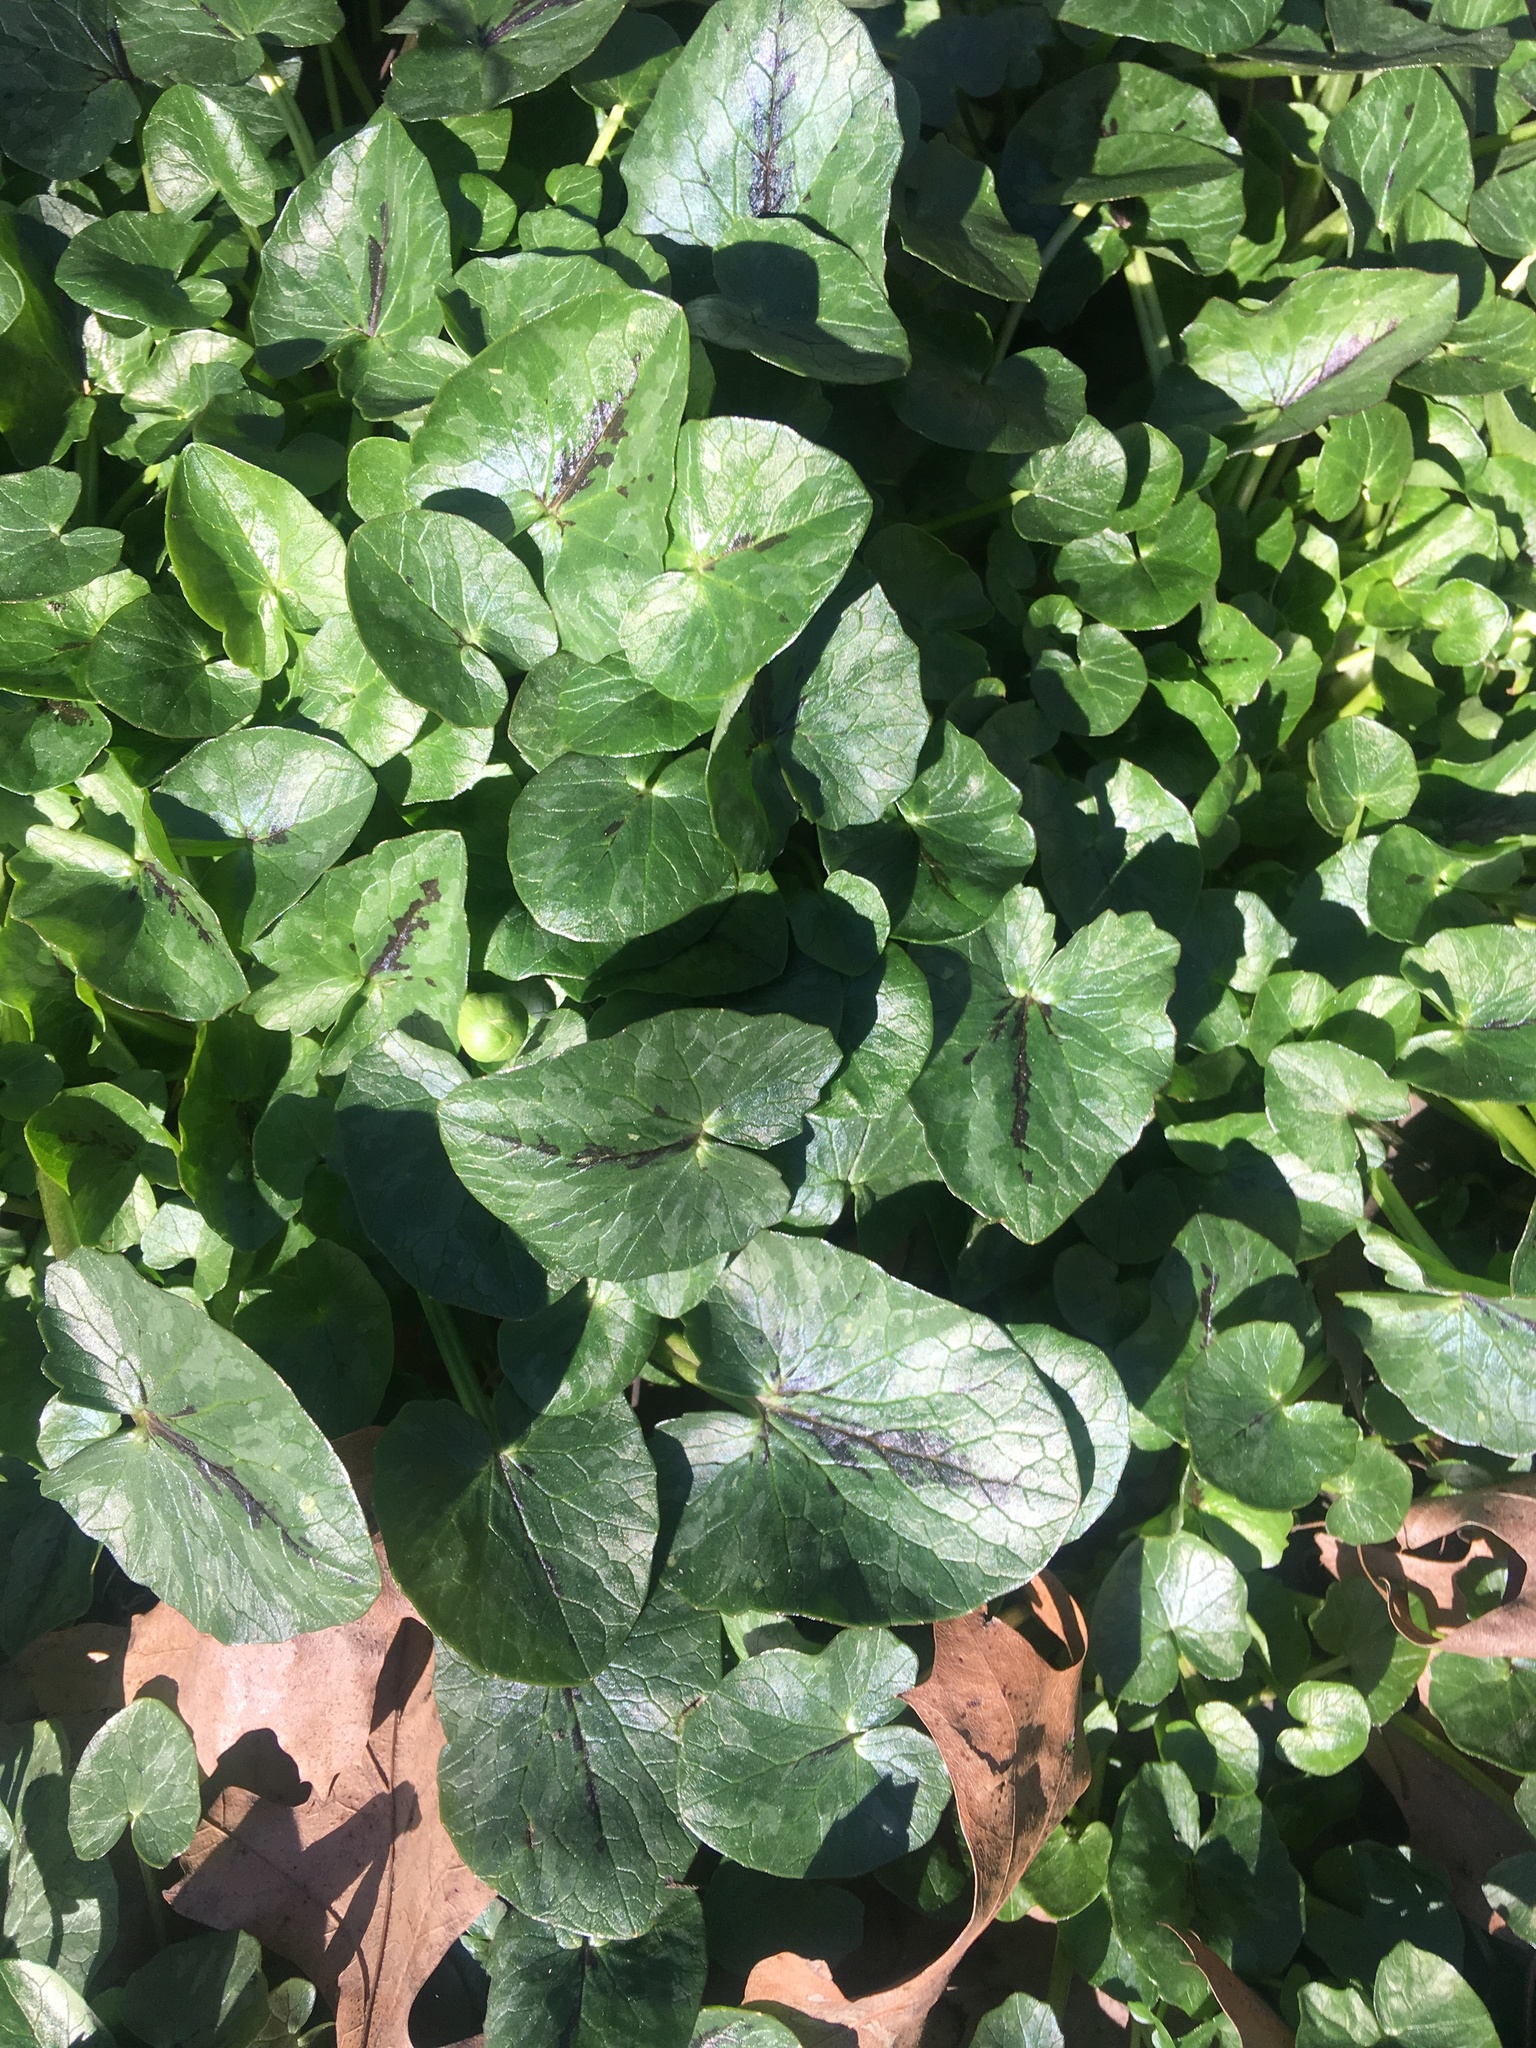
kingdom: Plantae
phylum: Tracheophyta
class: Magnoliopsida
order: Ranunculales
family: Ranunculaceae
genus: Ficaria
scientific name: Ficaria verna
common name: Lesser celandine
